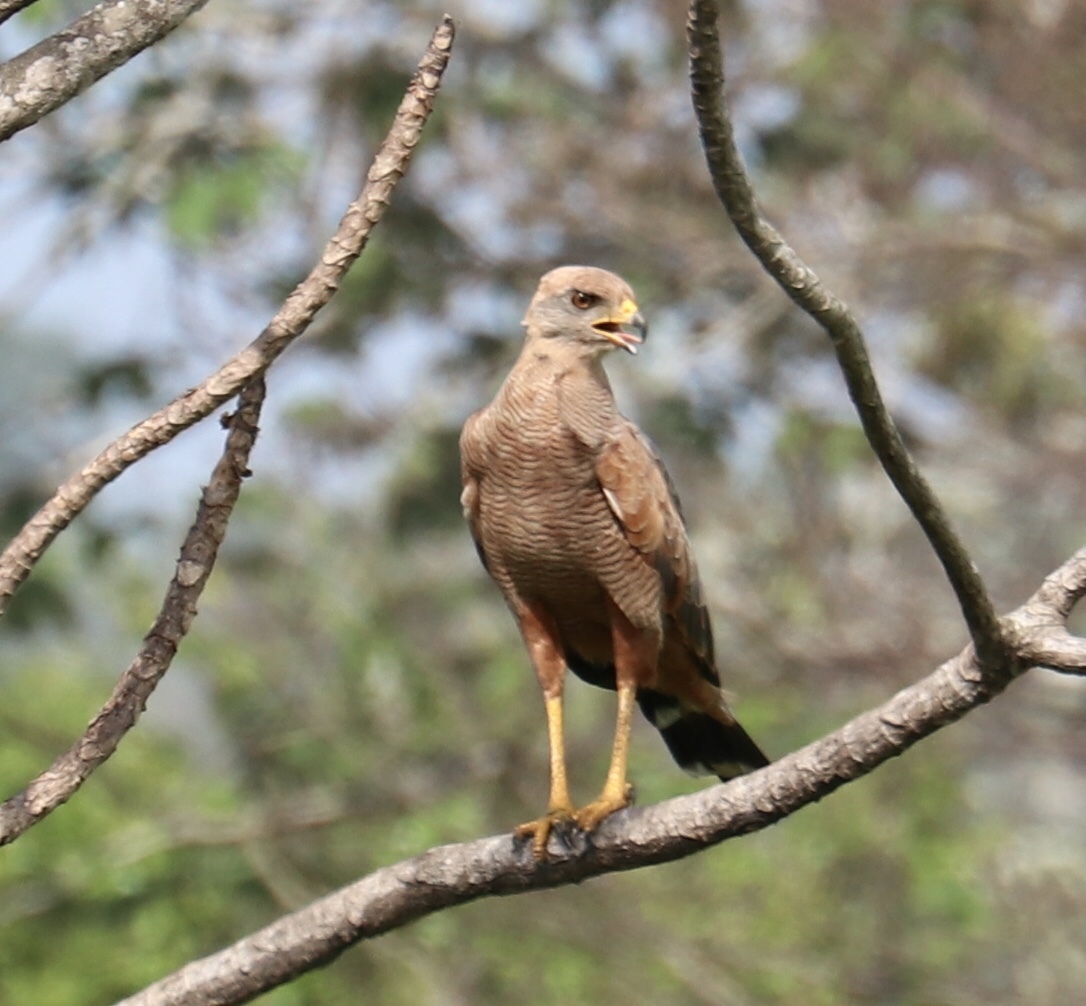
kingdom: Animalia
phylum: Chordata
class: Aves
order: Accipitriformes
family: Accipitridae
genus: Buteogallus
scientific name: Buteogallus meridionalis
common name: Savanna hawk
